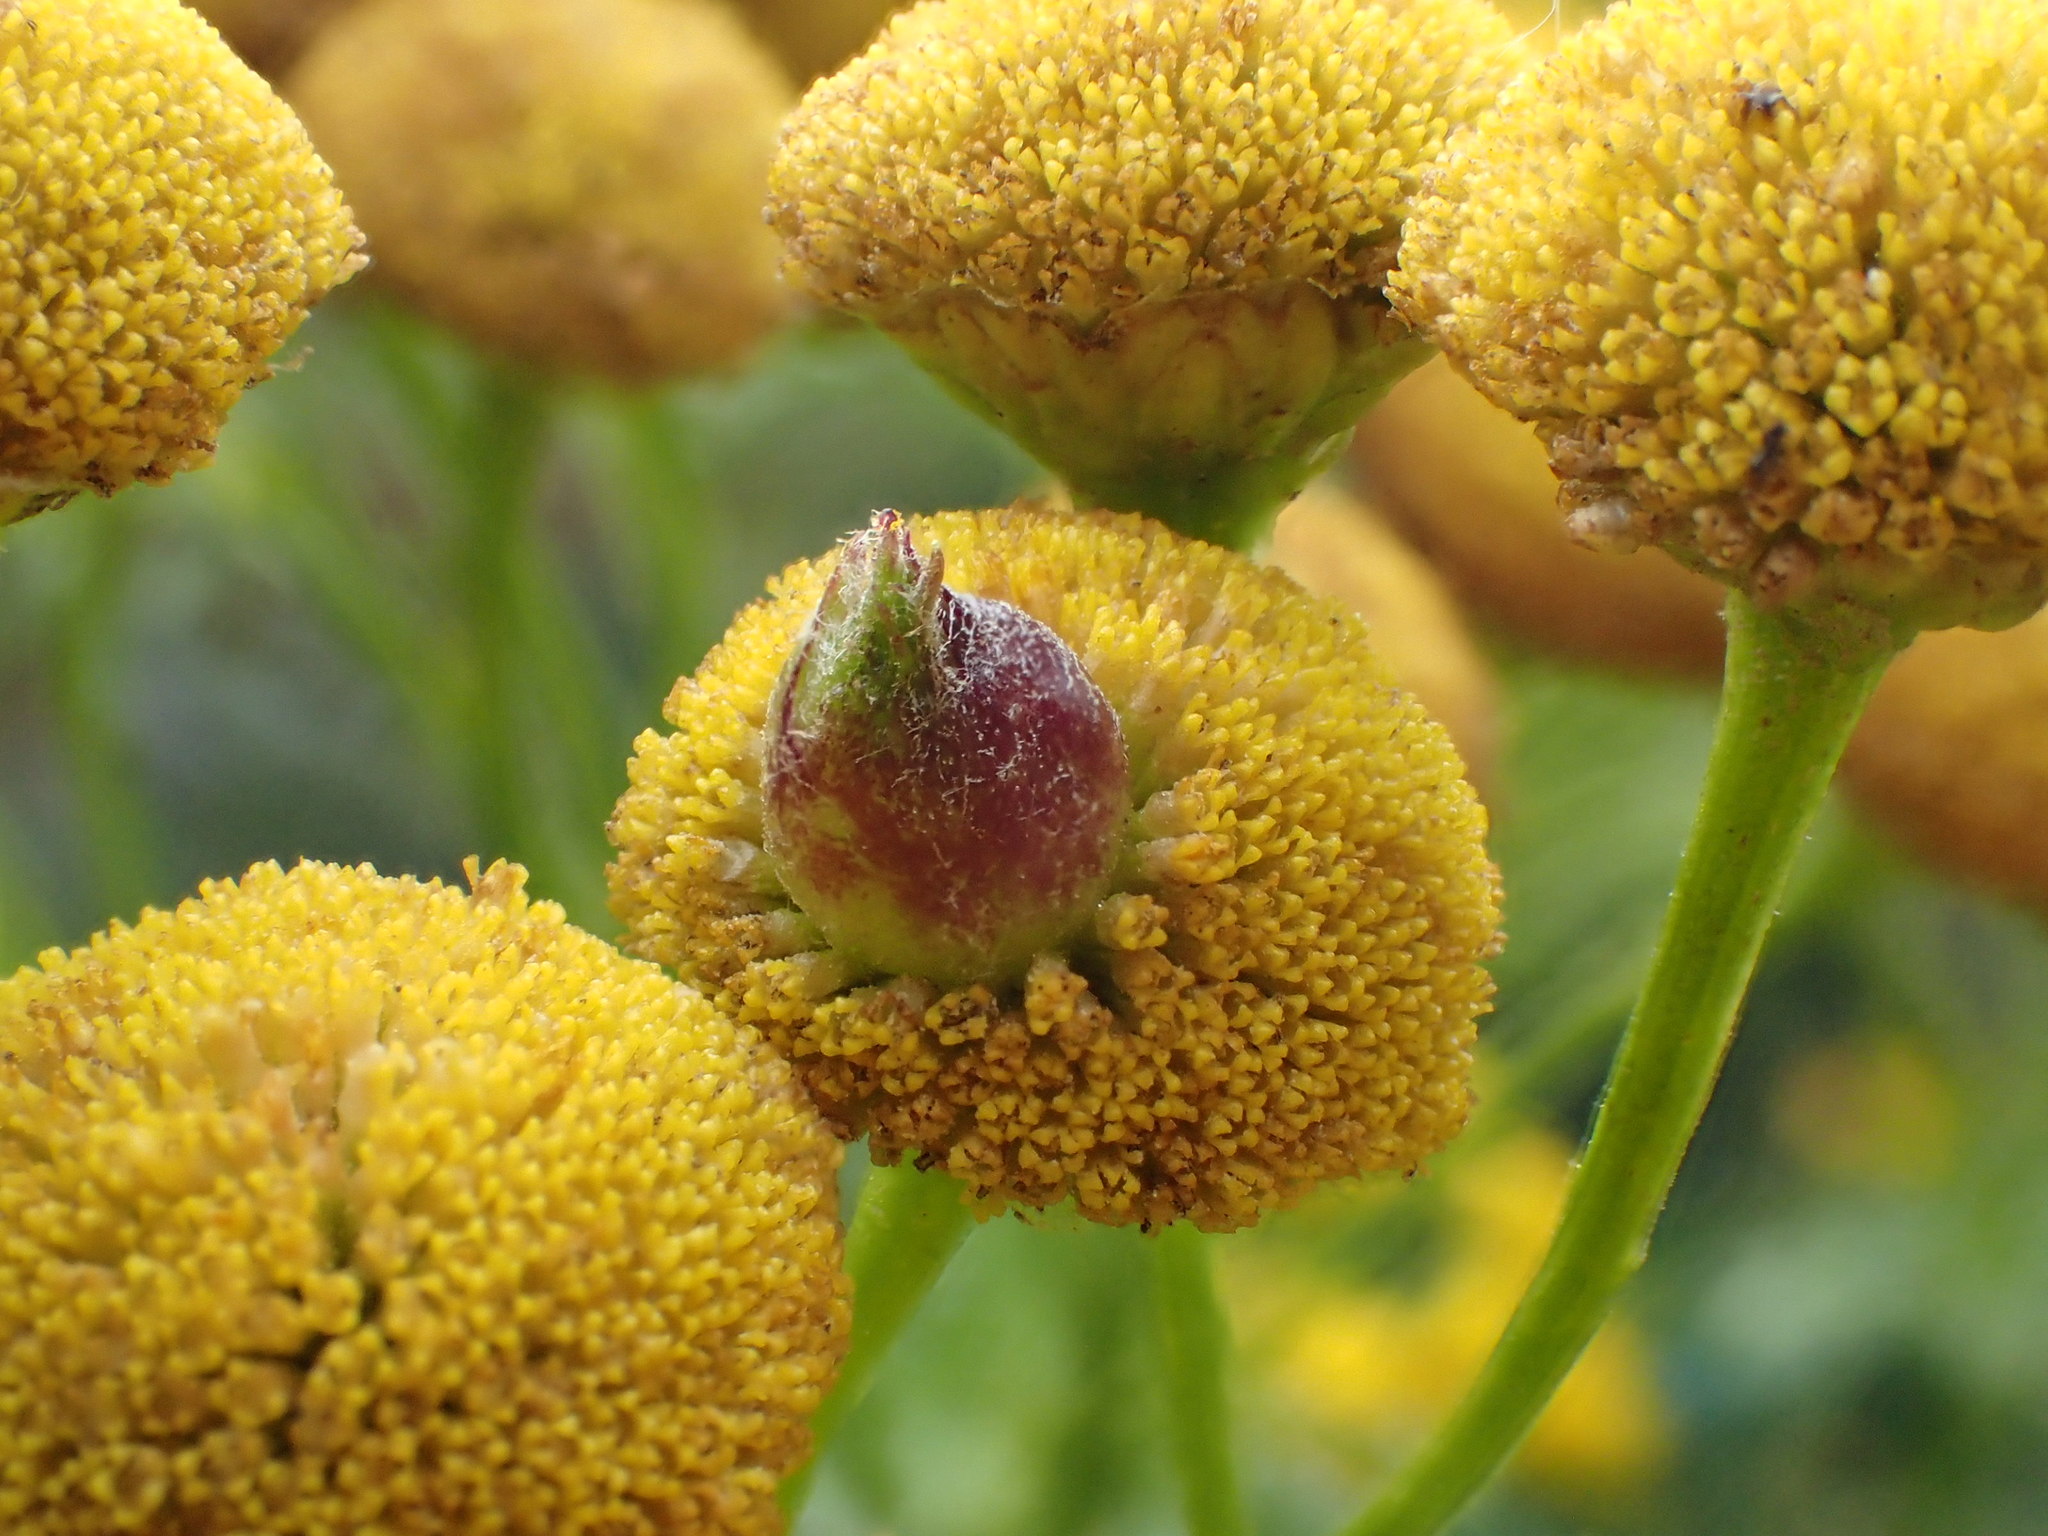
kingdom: Animalia
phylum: Arthropoda
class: Insecta
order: Diptera
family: Cecidomyiidae
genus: Rhopalomyia
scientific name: Rhopalomyia tanaceticolus
